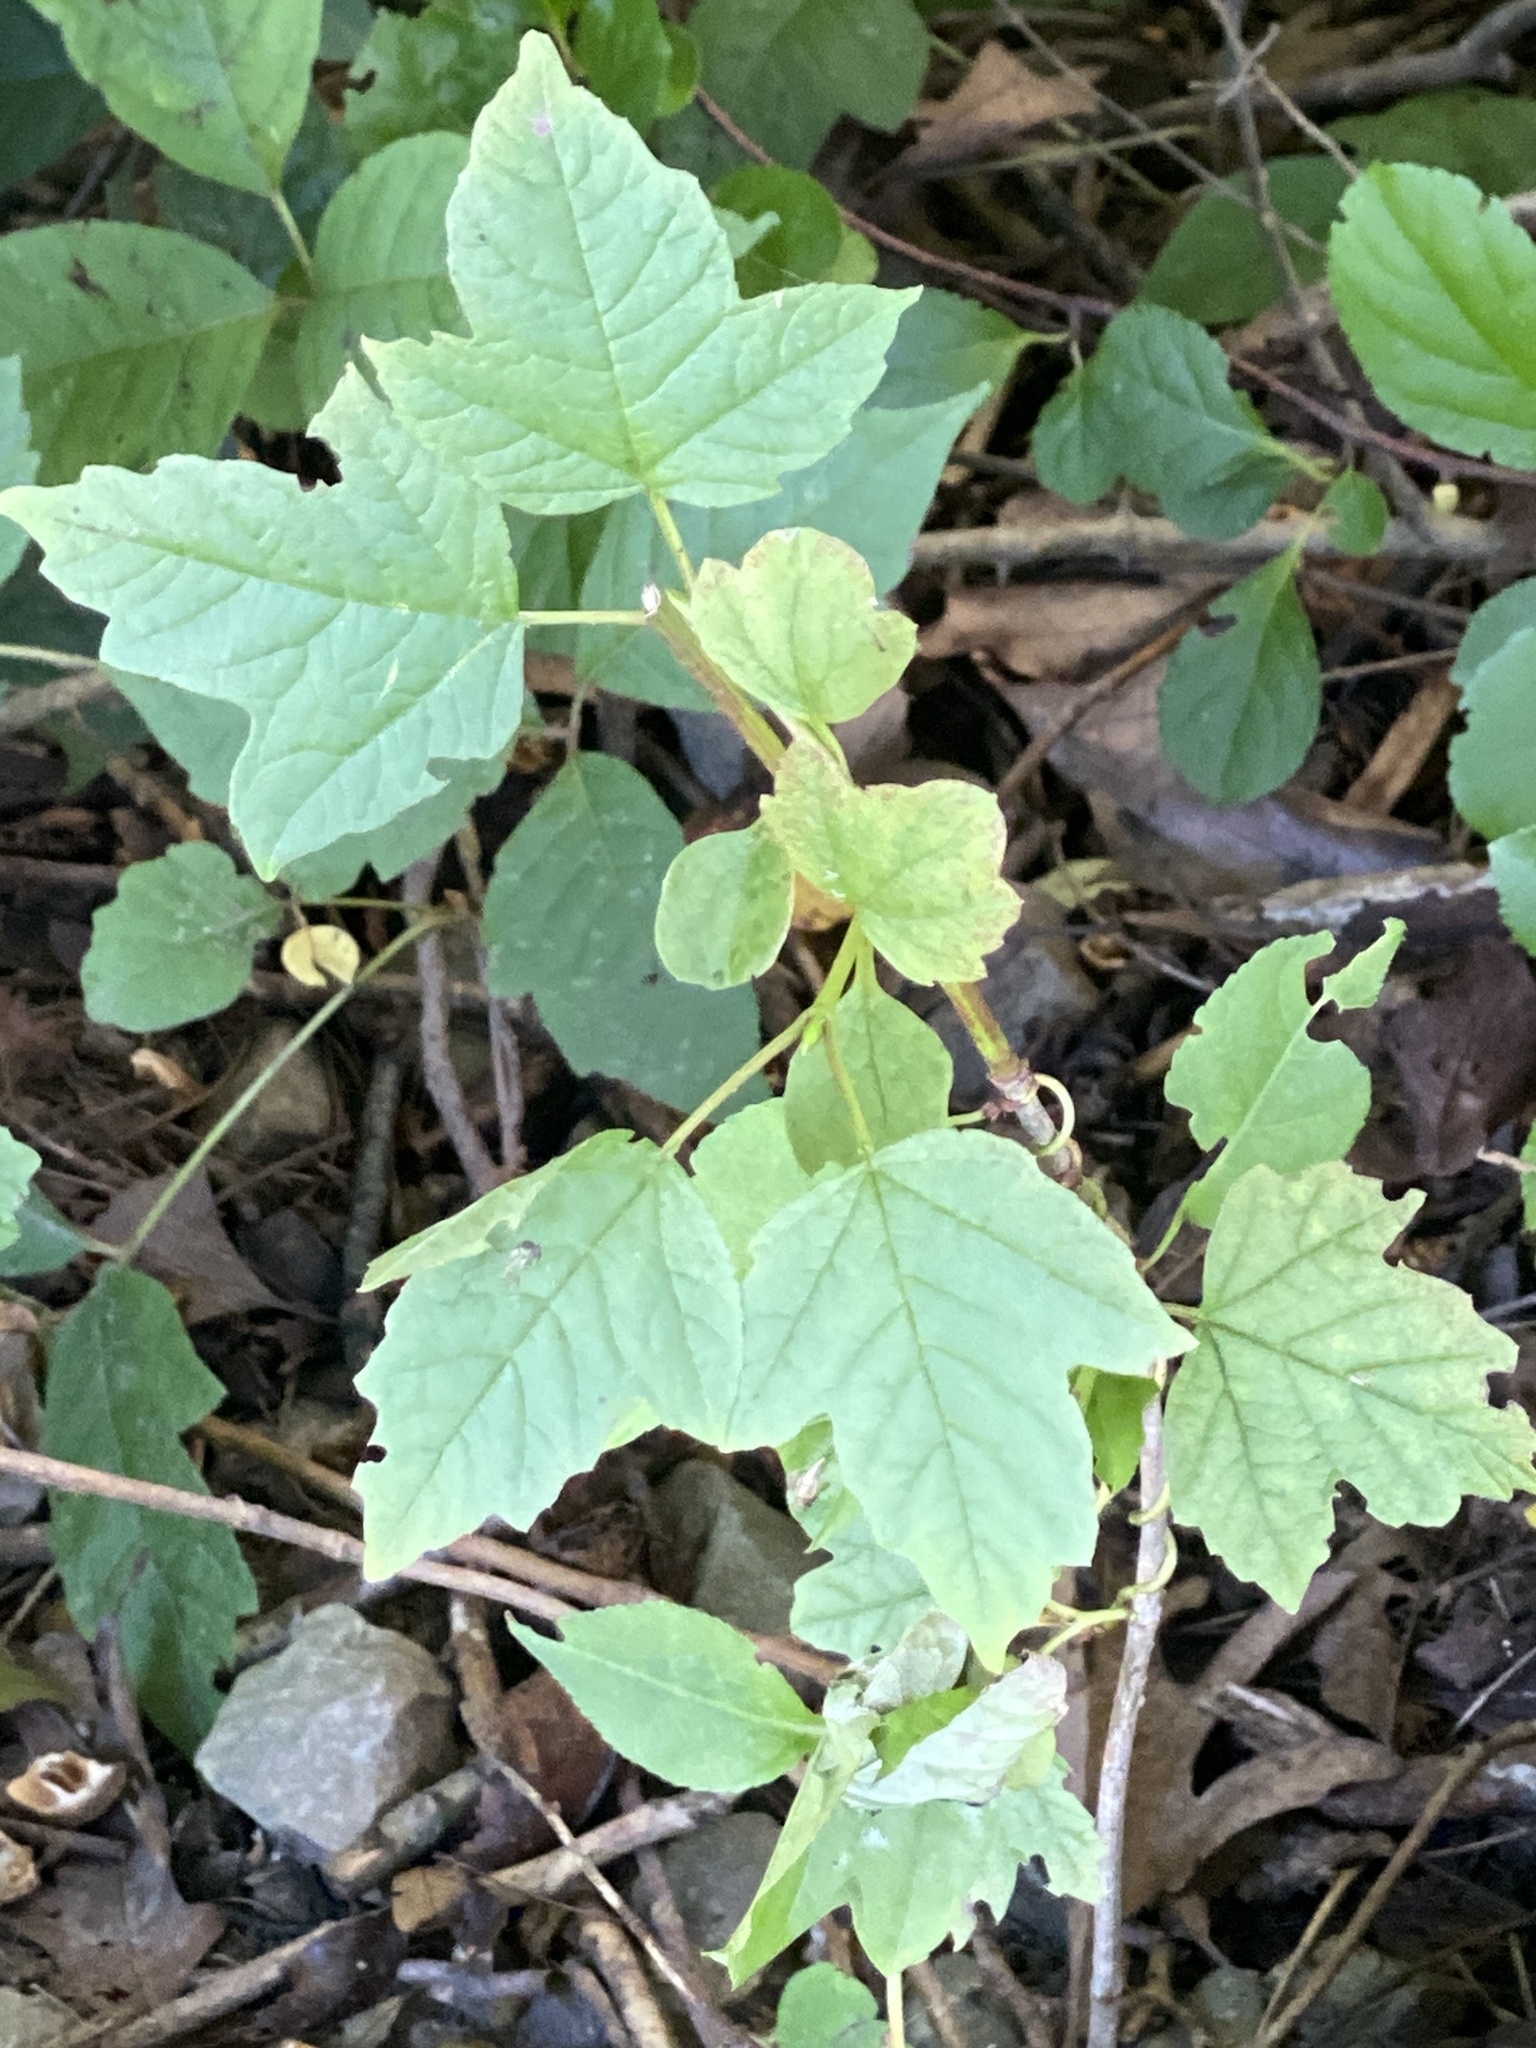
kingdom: Plantae
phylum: Tracheophyta
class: Magnoliopsida
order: Dipsacales
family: Viburnaceae
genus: Viburnum
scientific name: Viburnum opulus
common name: Guelder-rose
